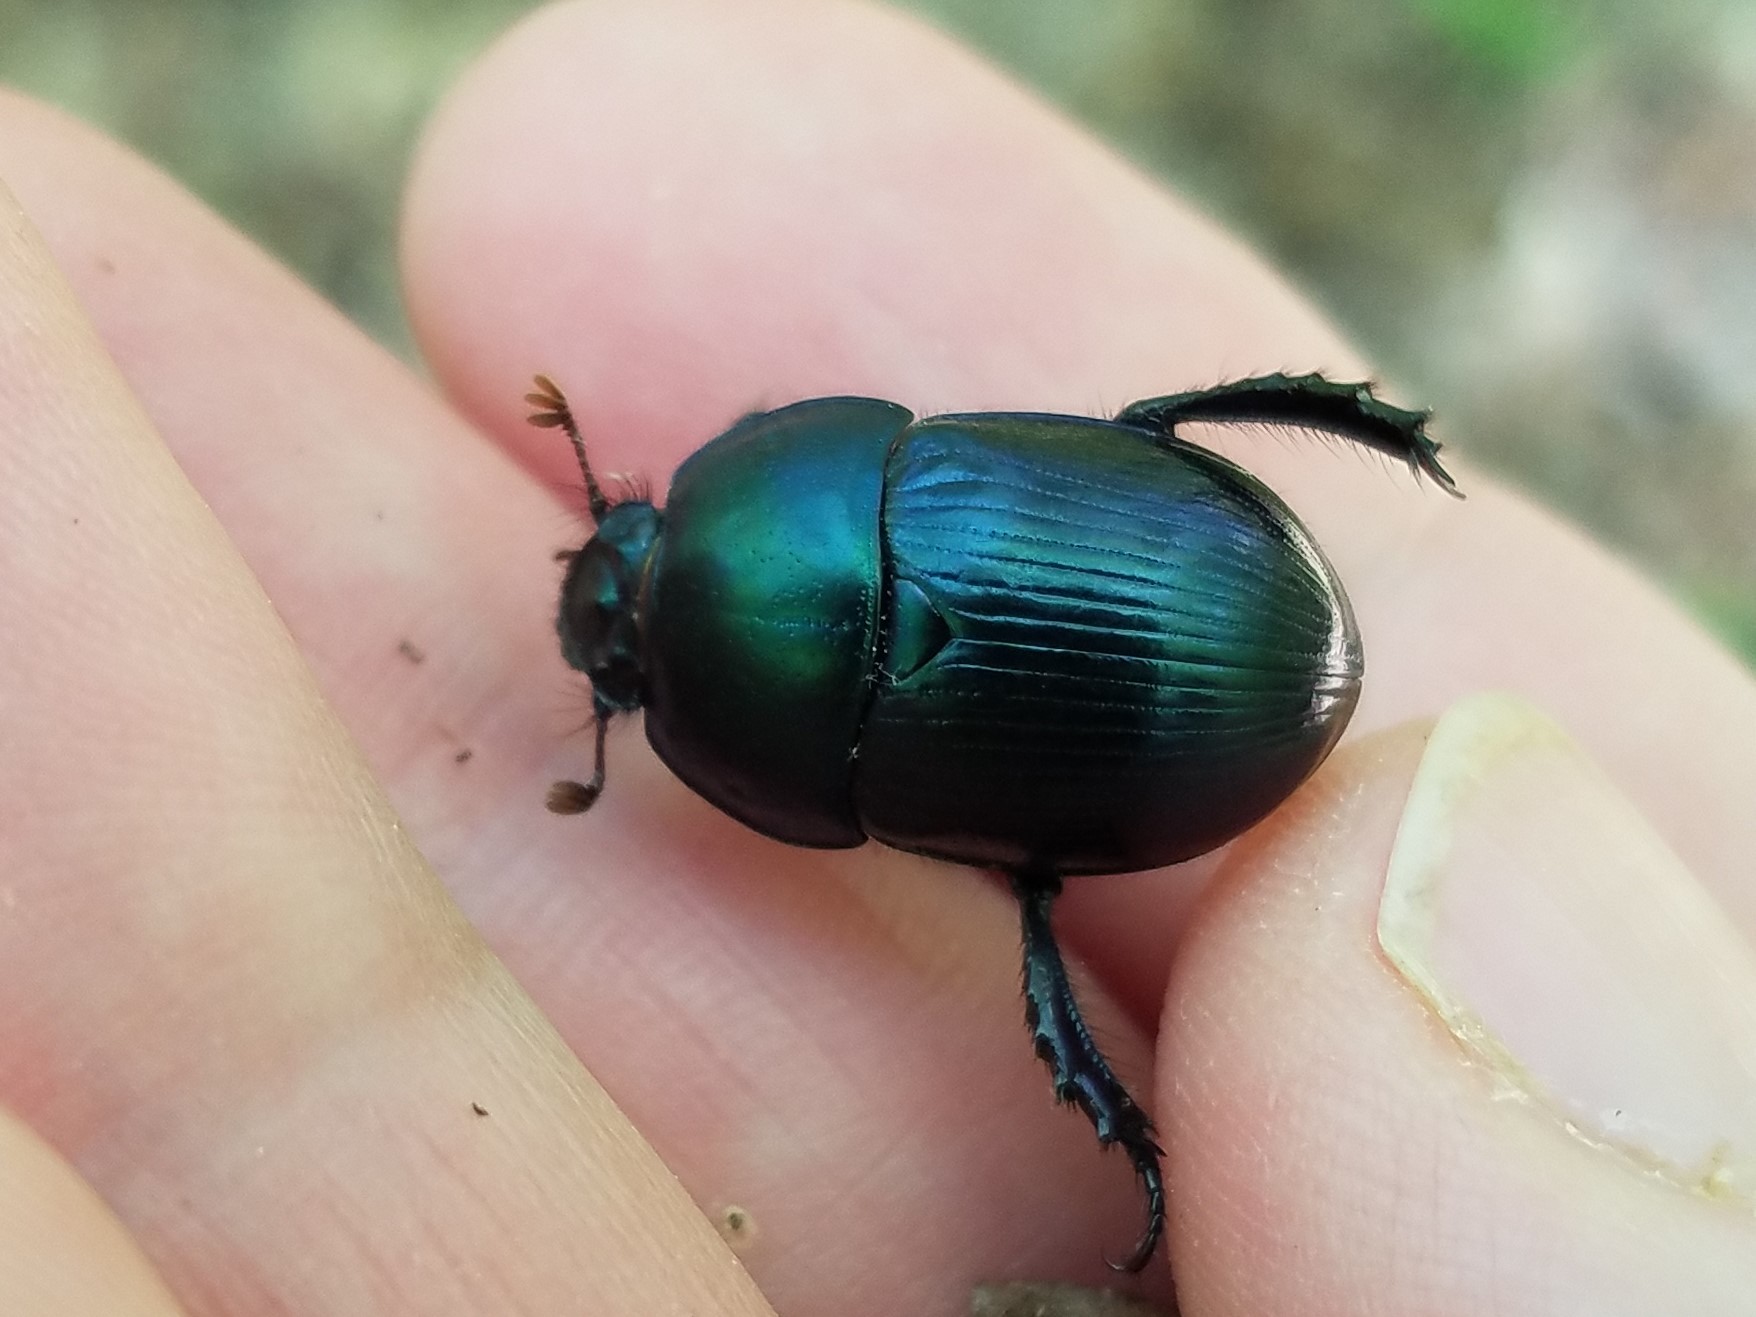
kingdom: Animalia
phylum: Arthropoda
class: Insecta
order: Coleoptera
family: Geotrupidae
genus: Geotrupes
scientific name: Geotrupes splendidus
